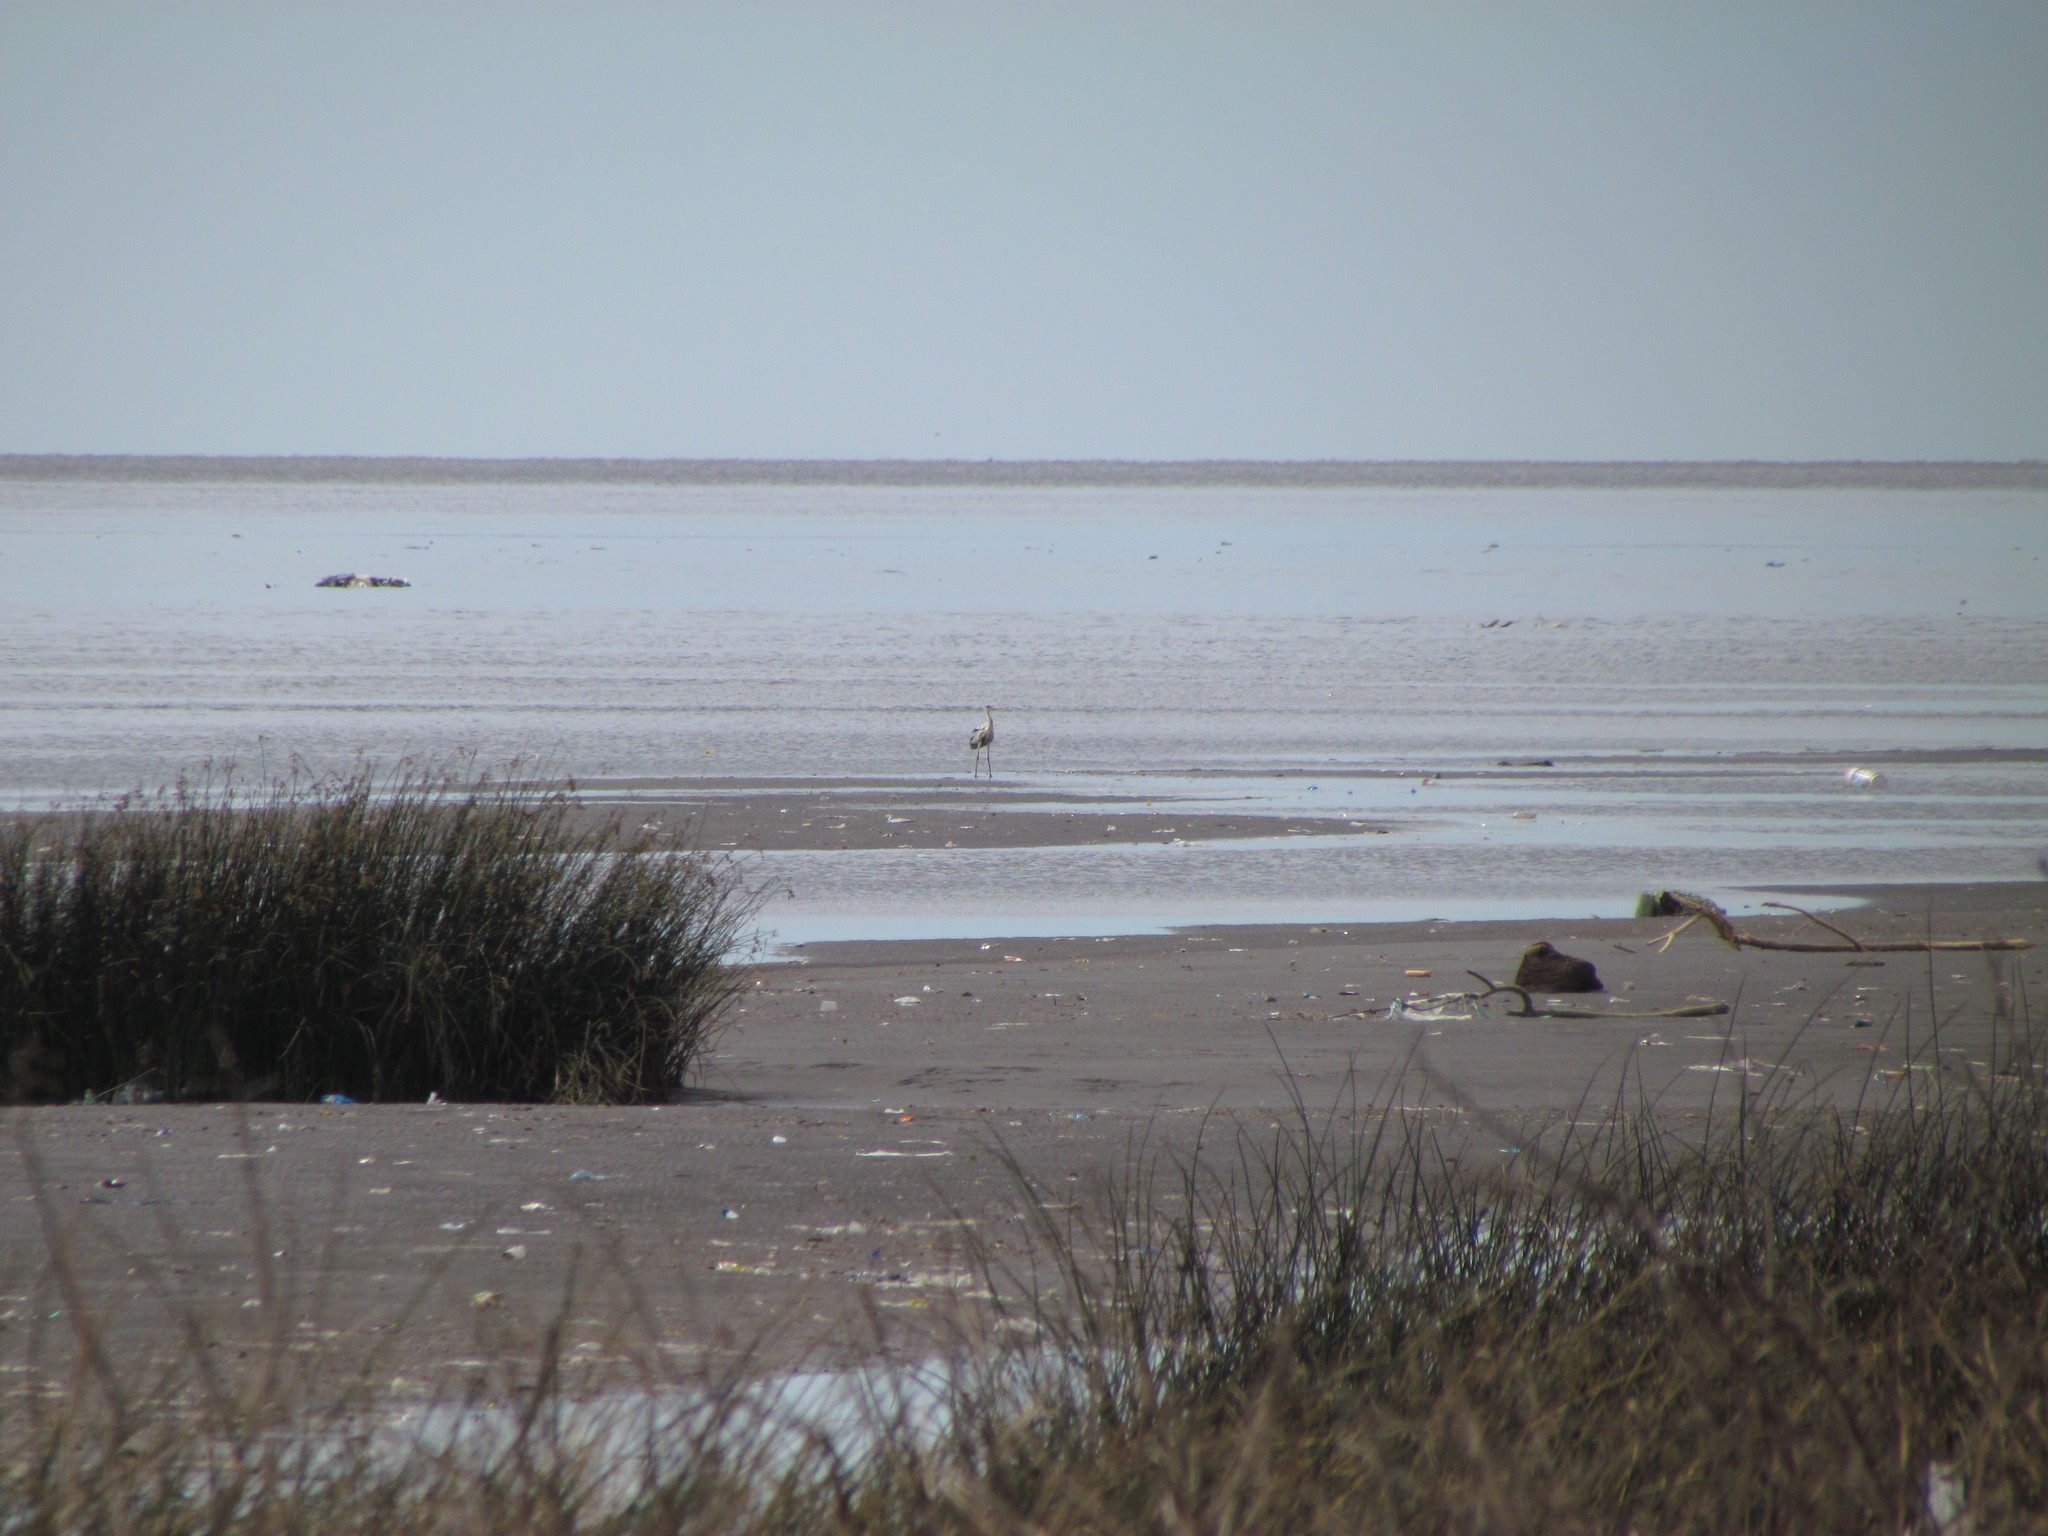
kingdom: Animalia
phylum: Chordata
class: Aves
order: Pelecaniformes
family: Ardeidae
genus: Ardea
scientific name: Ardea cocoi
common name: Cocoi heron
